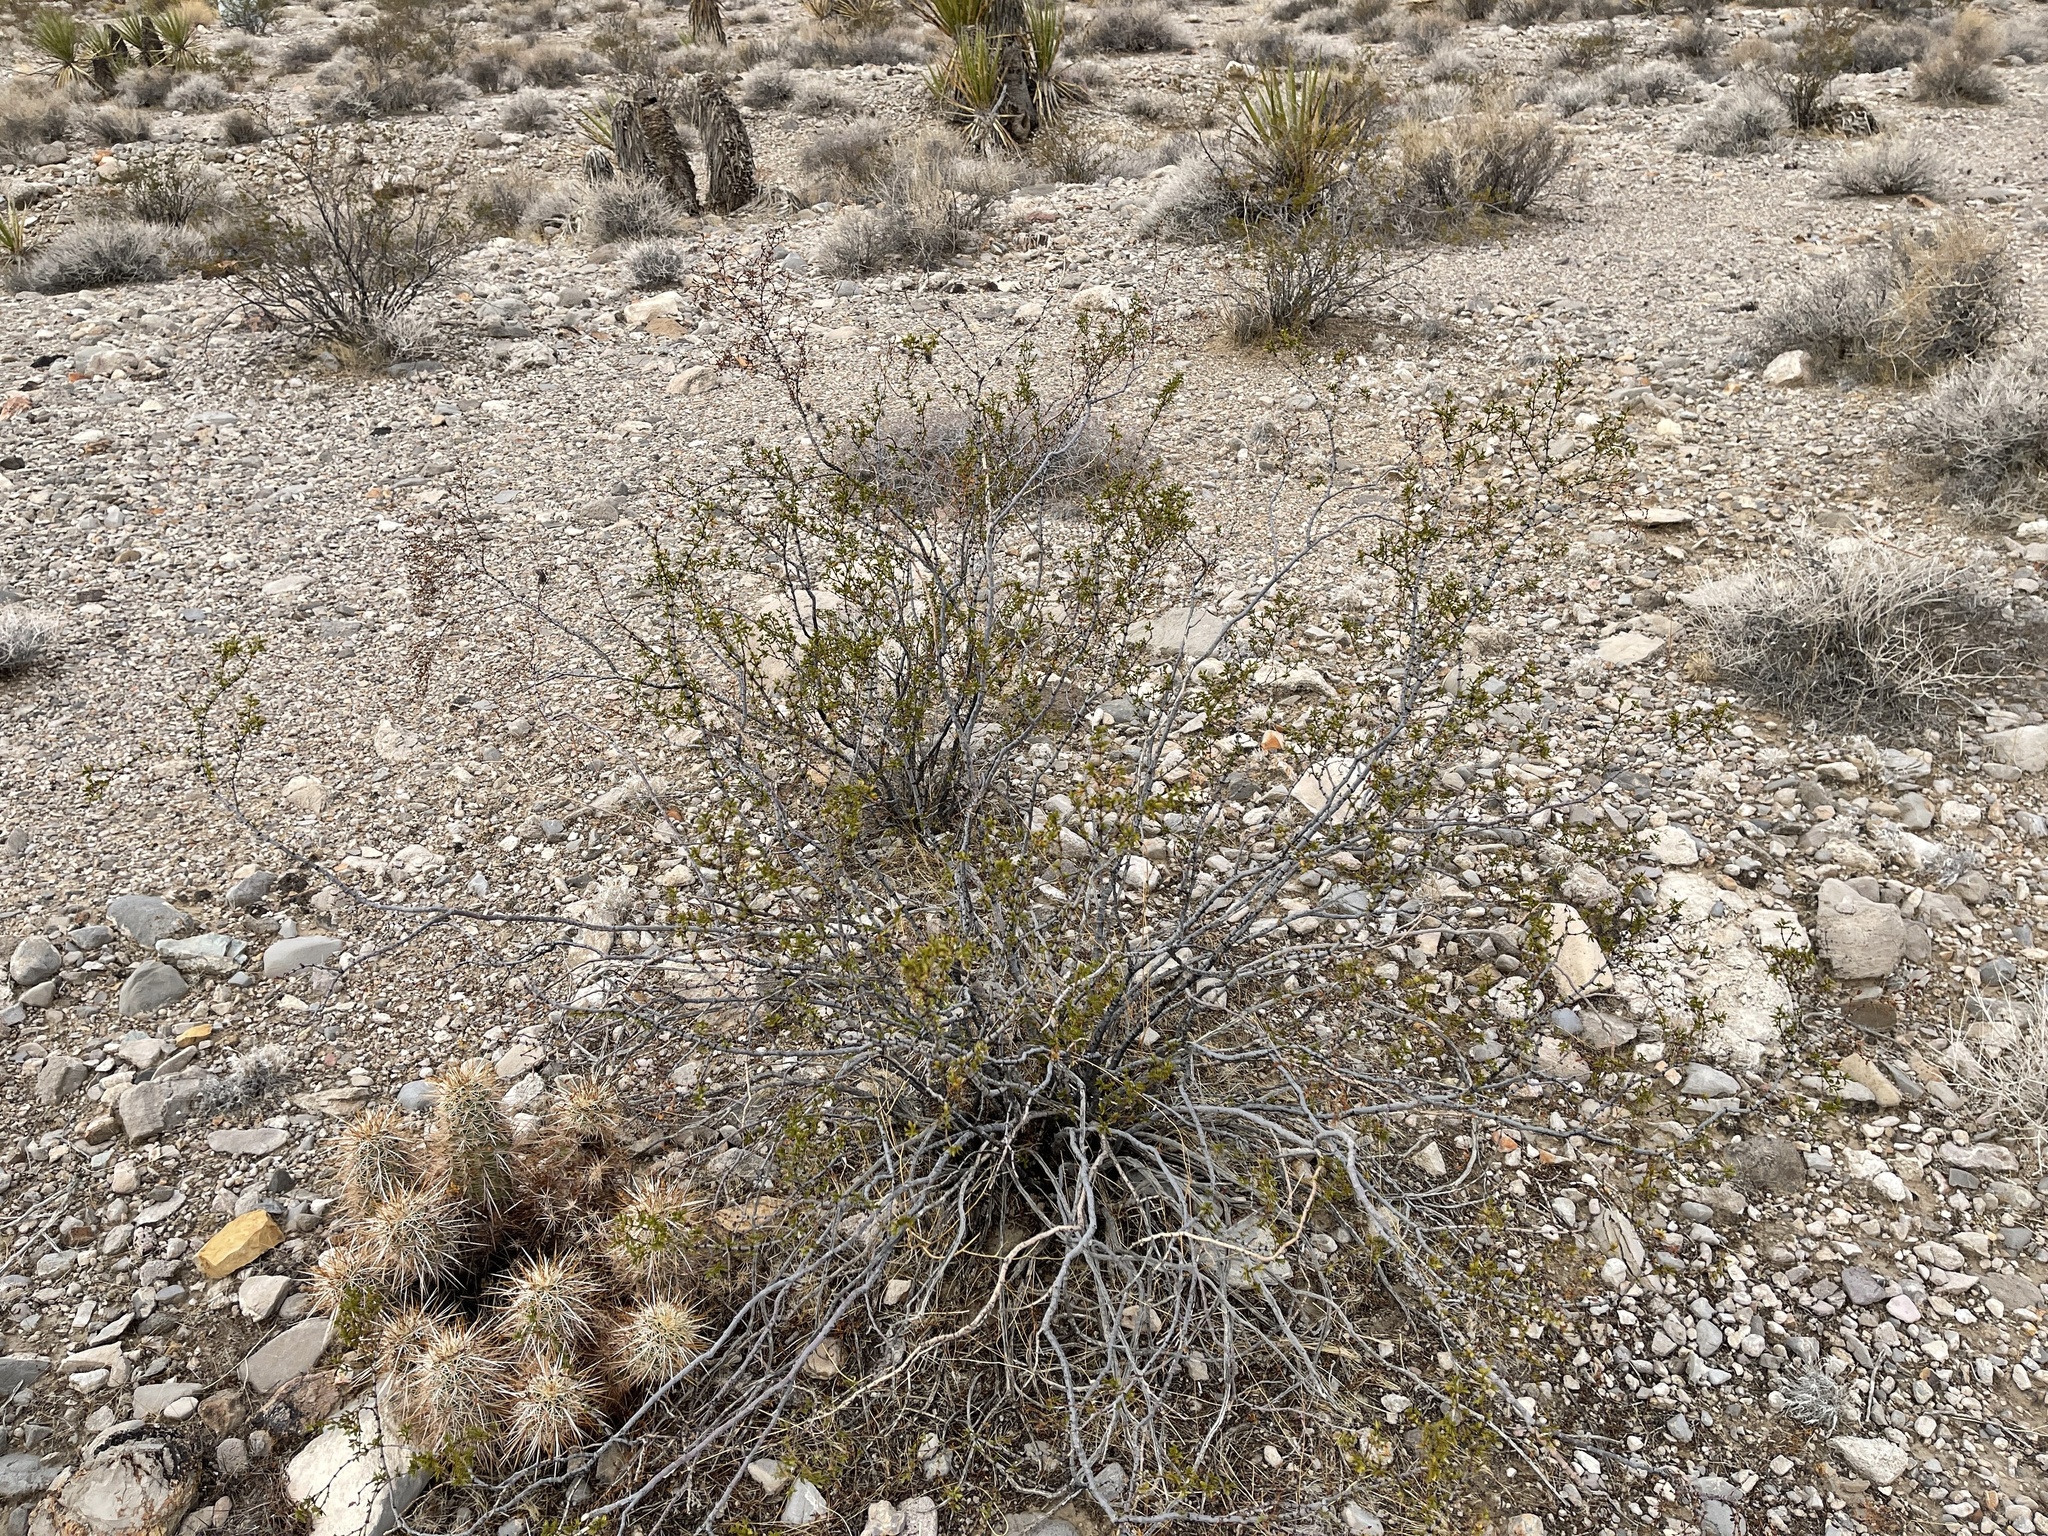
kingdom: Plantae
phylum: Tracheophyta
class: Magnoliopsida
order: Zygophyllales
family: Zygophyllaceae
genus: Larrea
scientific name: Larrea tridentata
